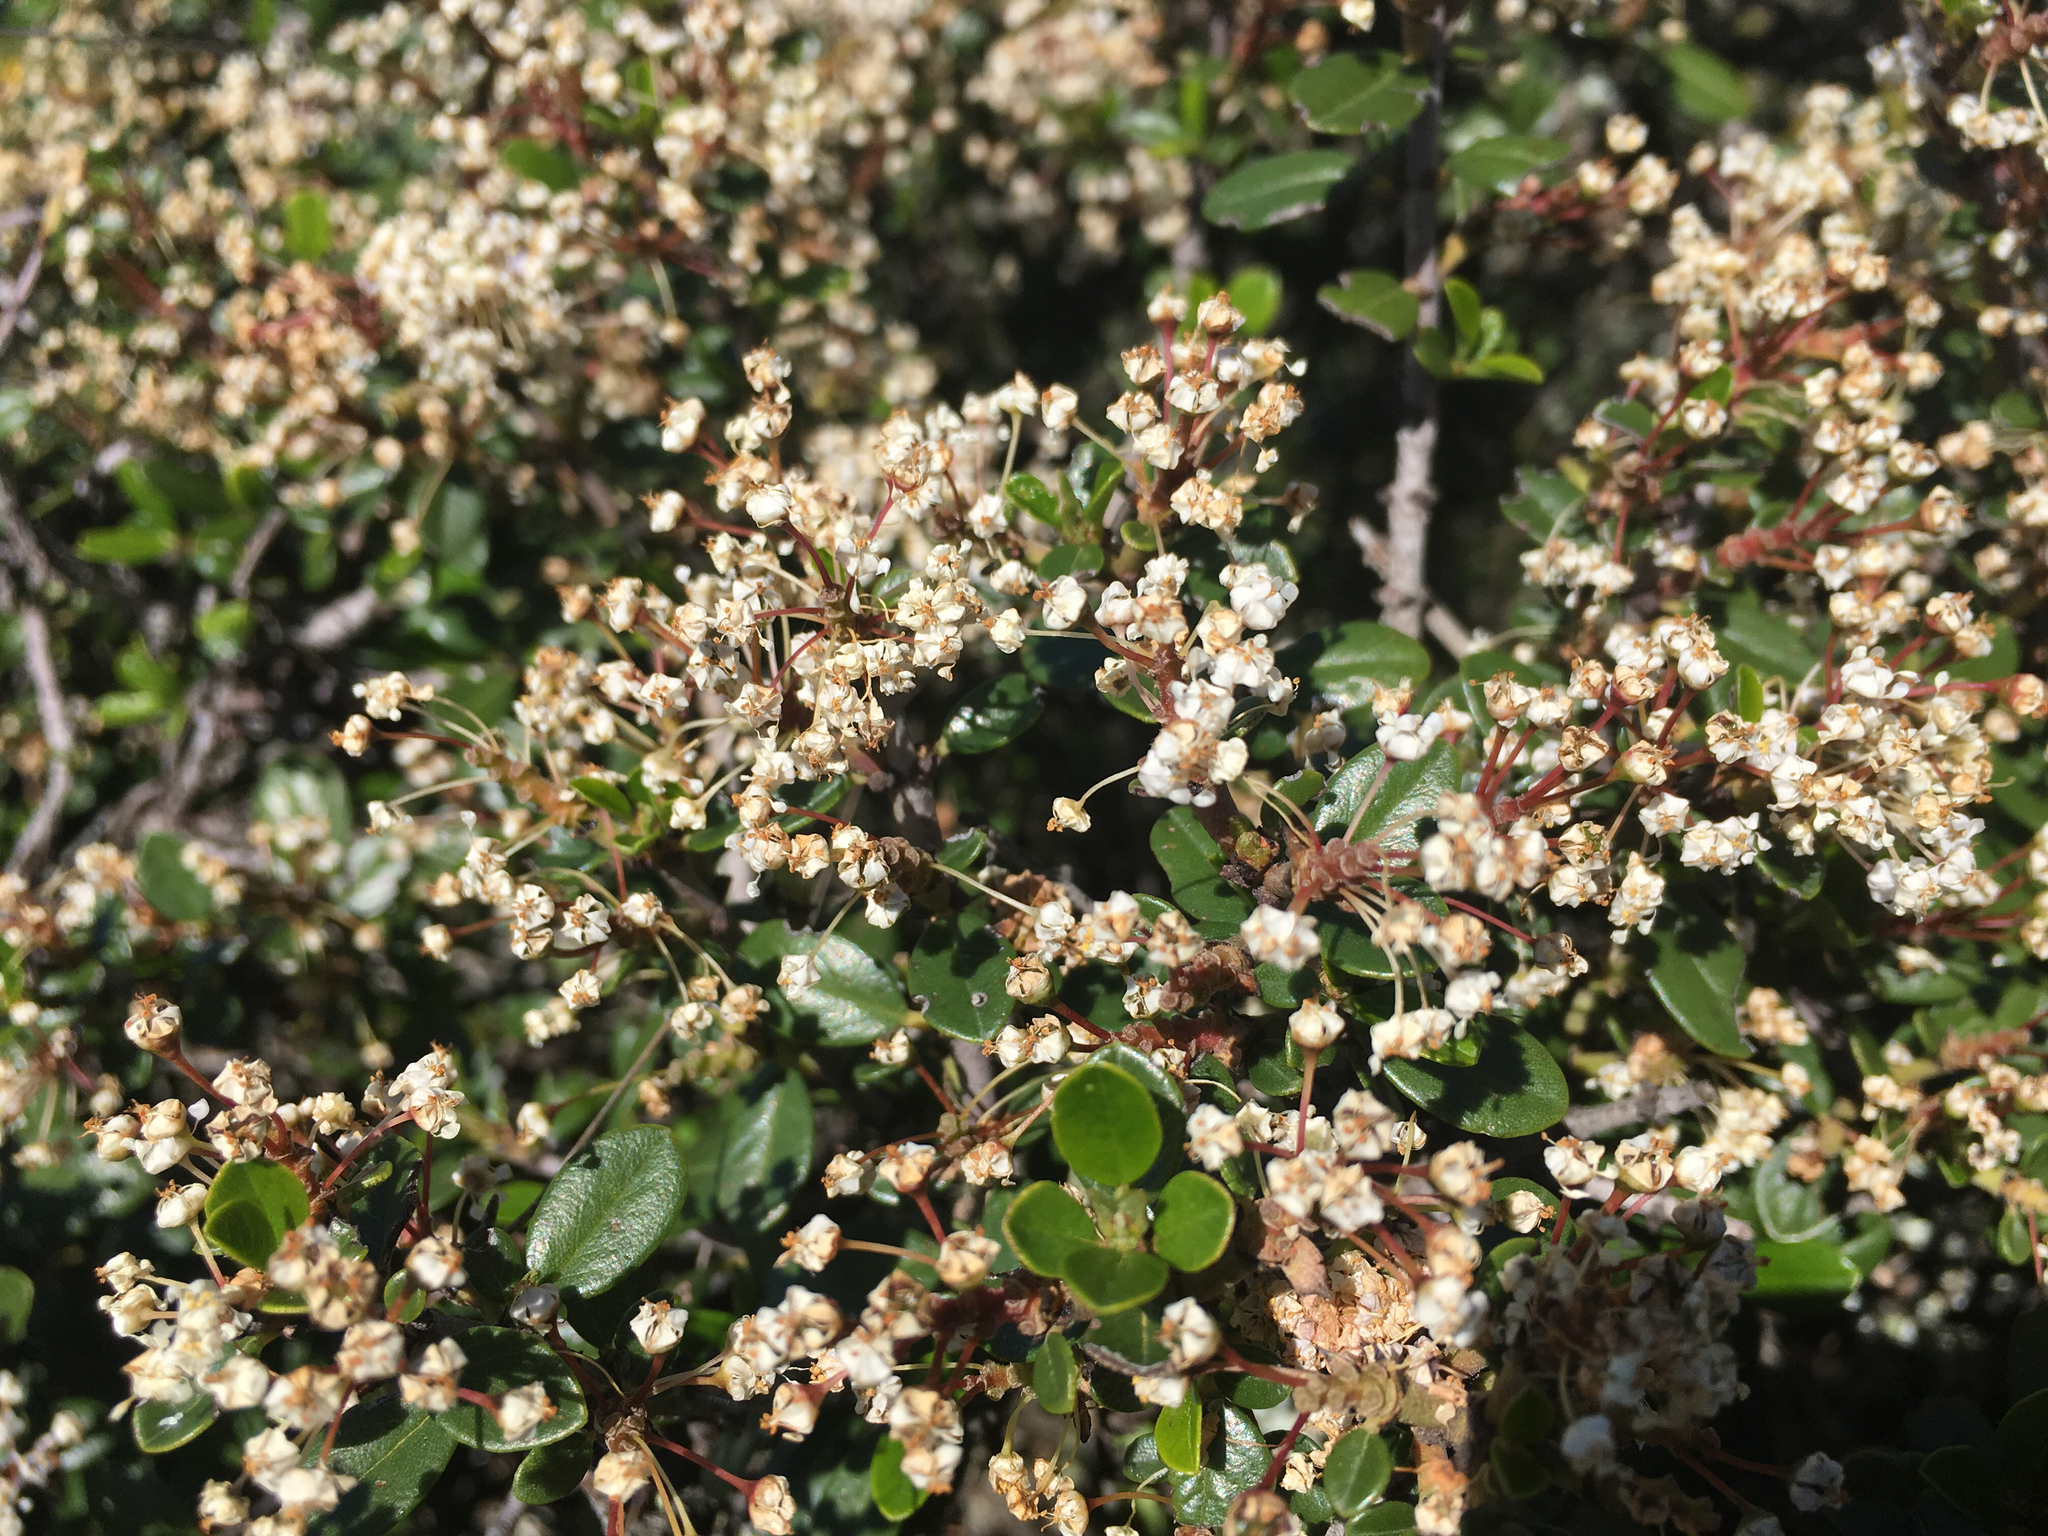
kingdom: Plantae
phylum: Tracheophyta
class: Magnoliopsida
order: Rosales
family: Rhamnaceae
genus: Ceanothus
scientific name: Ceanothus cuneatus
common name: Cuneate ceanothus
